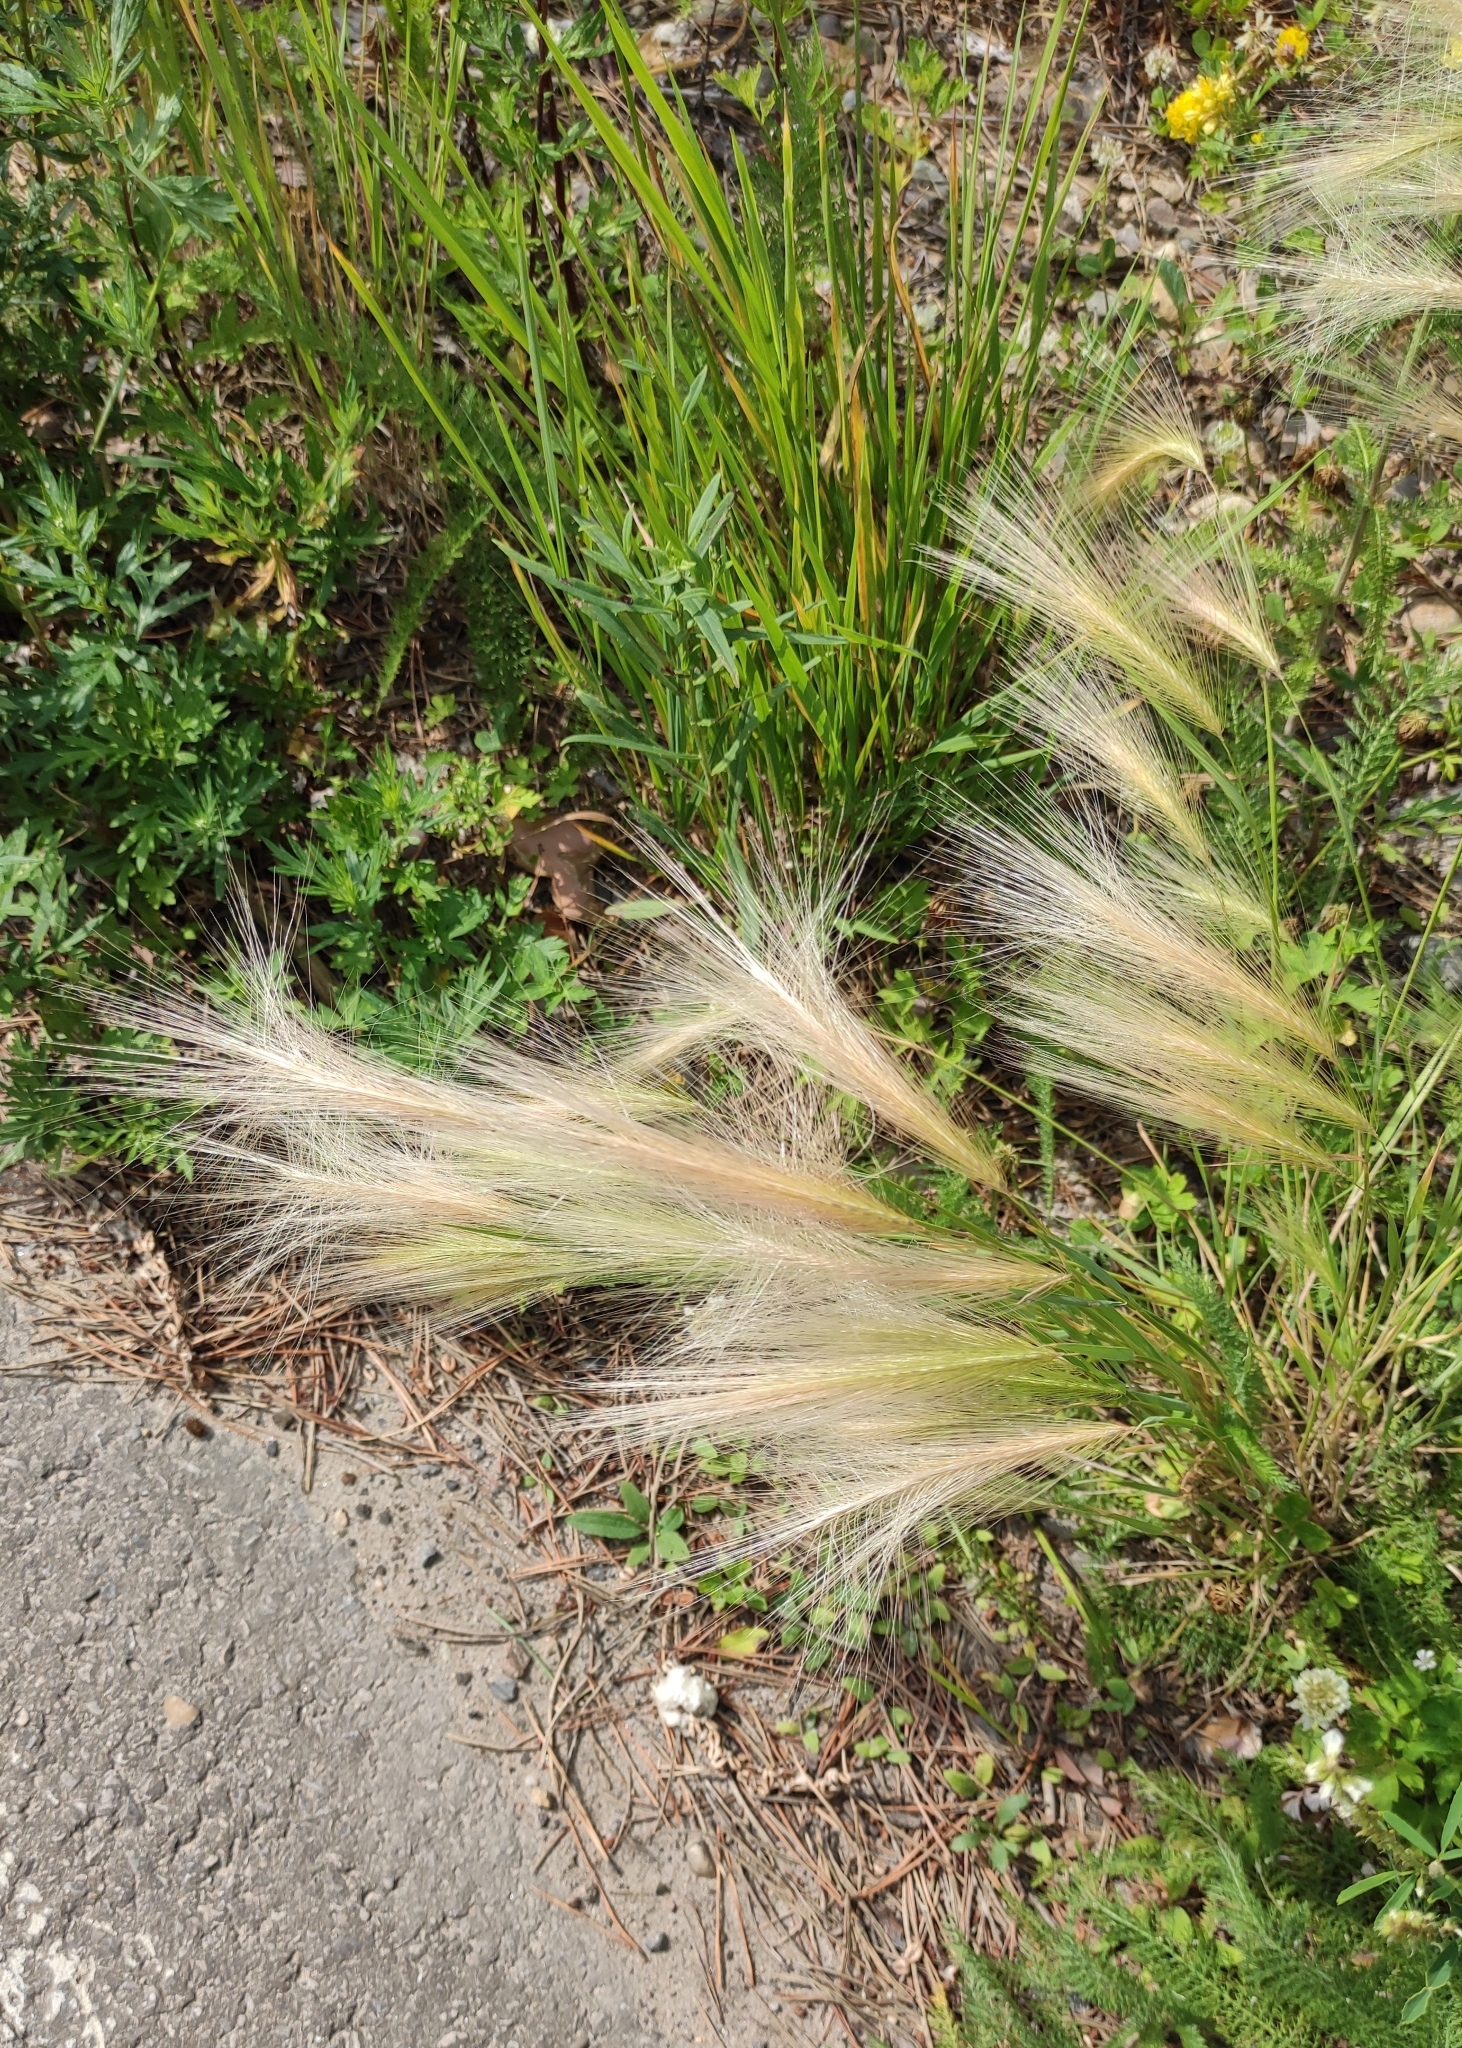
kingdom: Plantae
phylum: Tracheophyta
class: Liliopsida
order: Poales
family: Poaceae
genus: Hordeum
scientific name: Hordeum jubatum
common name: Foxtail barley
